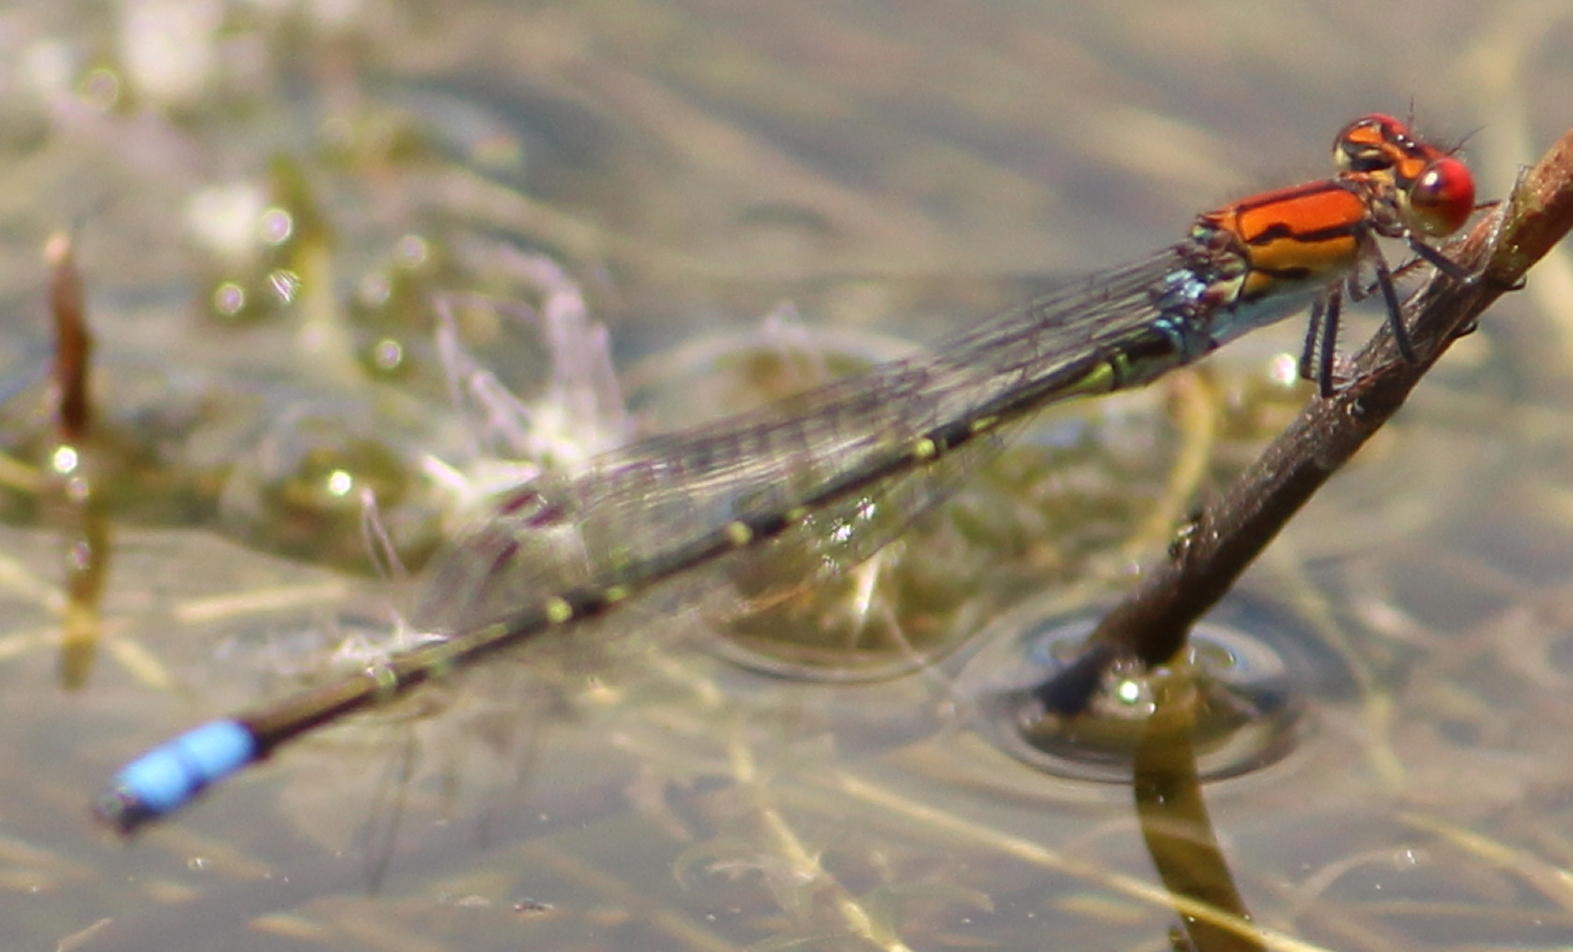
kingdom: Animalia
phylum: Arthropoda
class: Insecta
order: Odonata
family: Coenagrionidae
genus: Pseudagrion
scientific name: Pseudagrion massaicum
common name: Masai sprite
